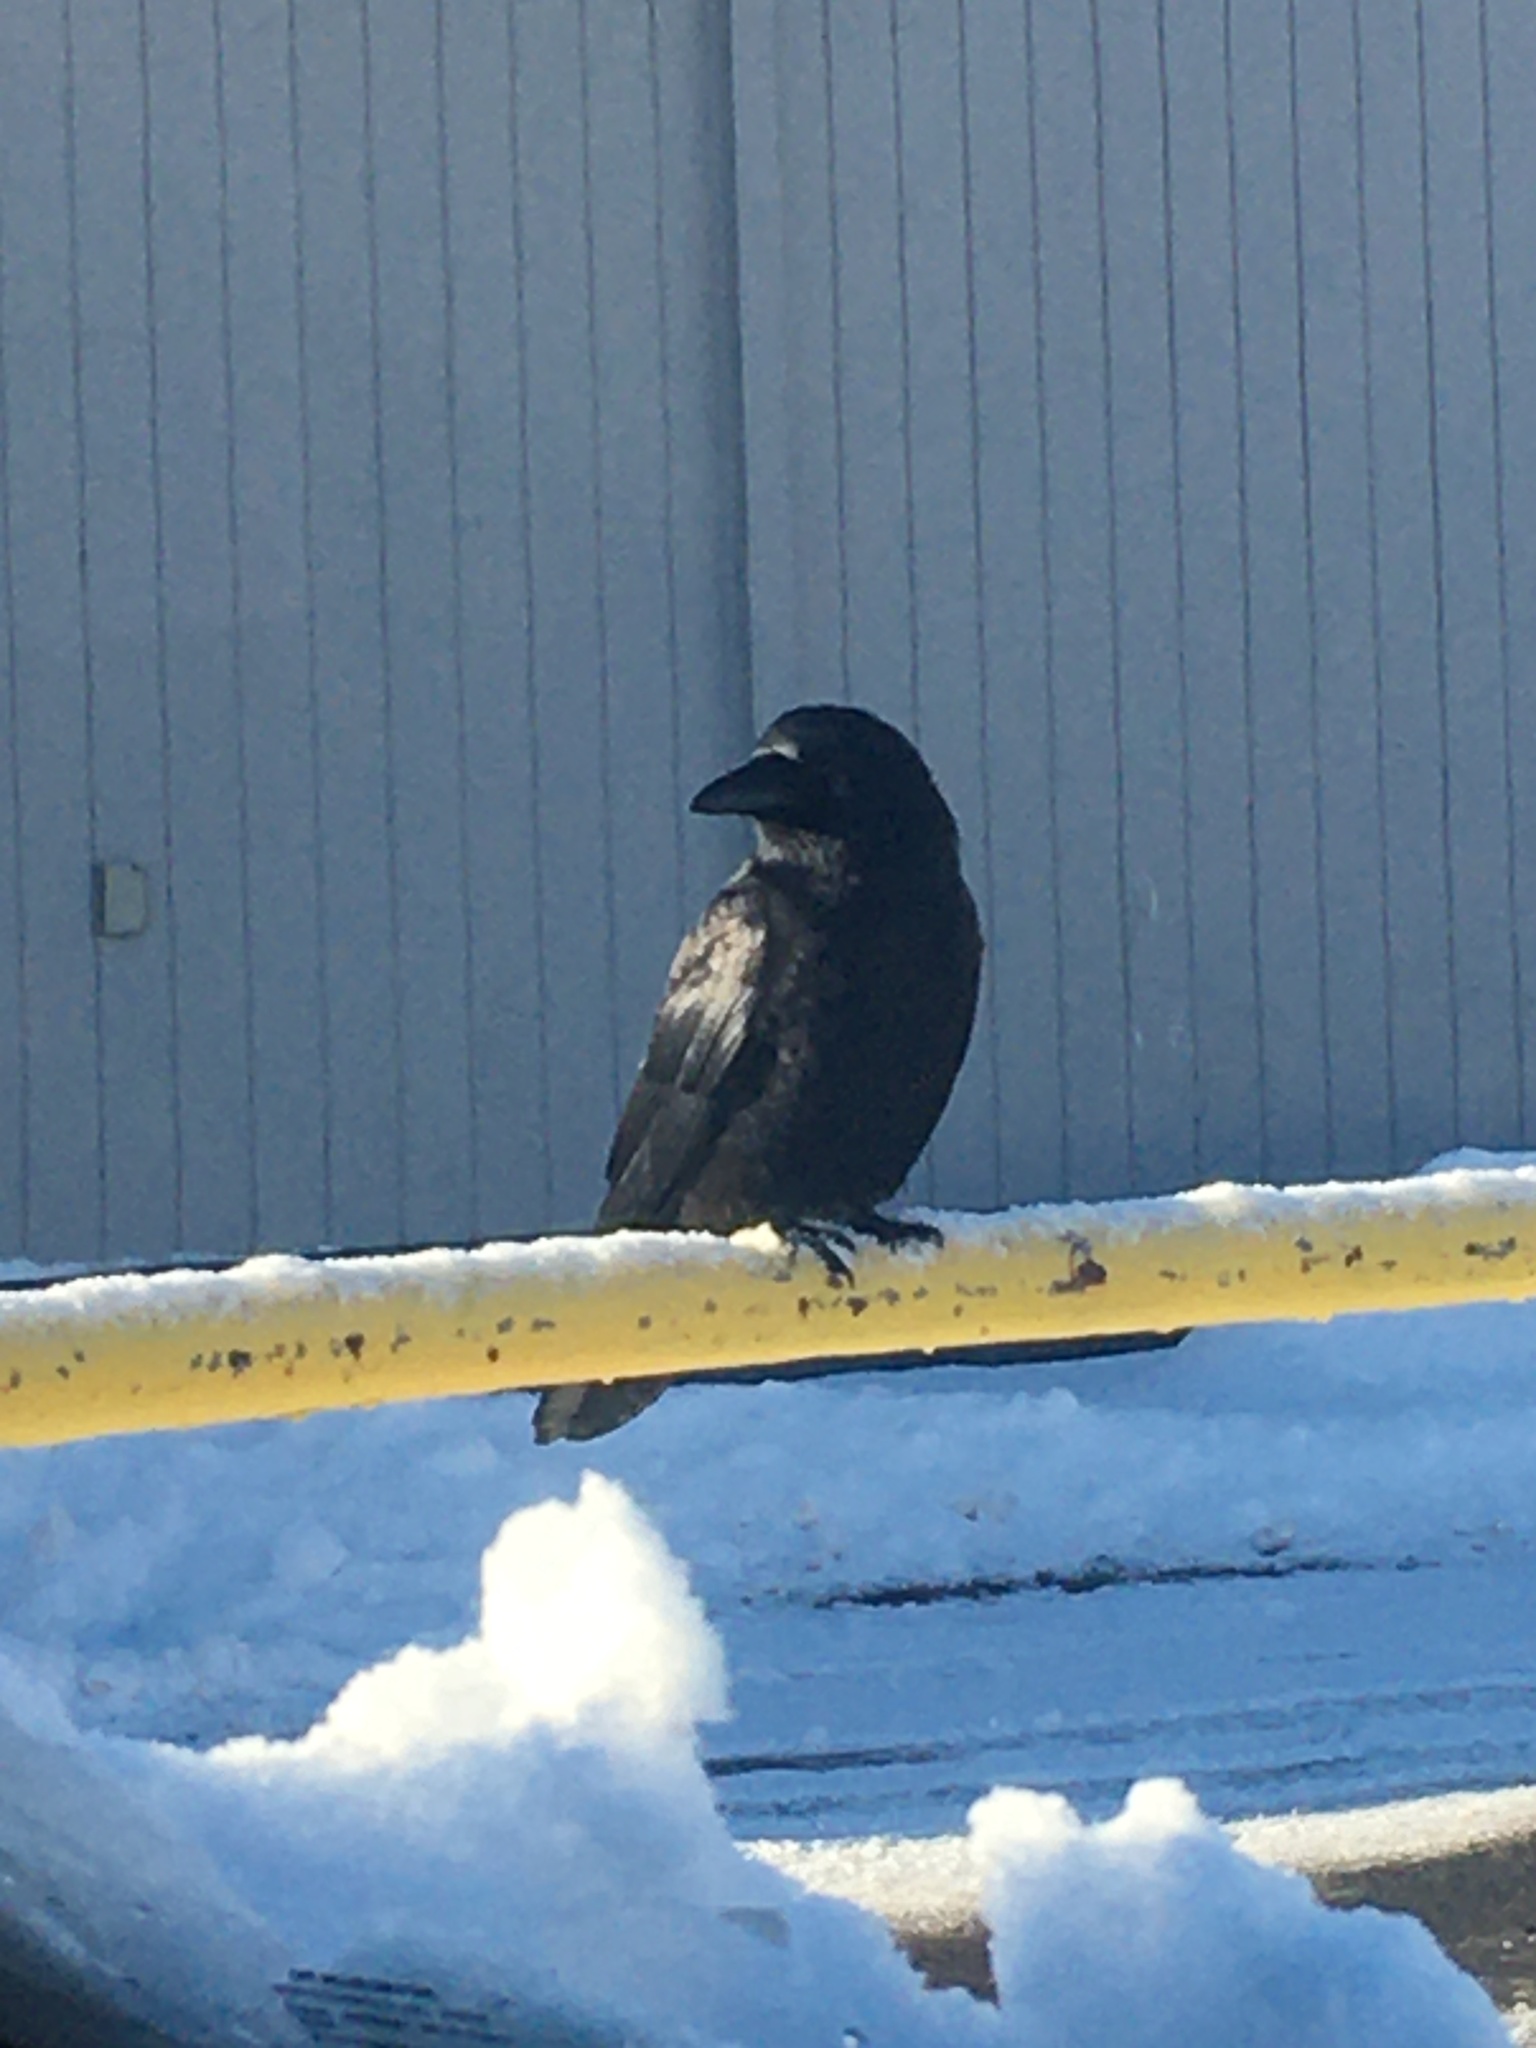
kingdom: Animalia
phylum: Chordata
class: Aves
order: Passeriformes
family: Corvidae
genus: Corvus
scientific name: Corvus brachyrhynchos
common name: American crow
